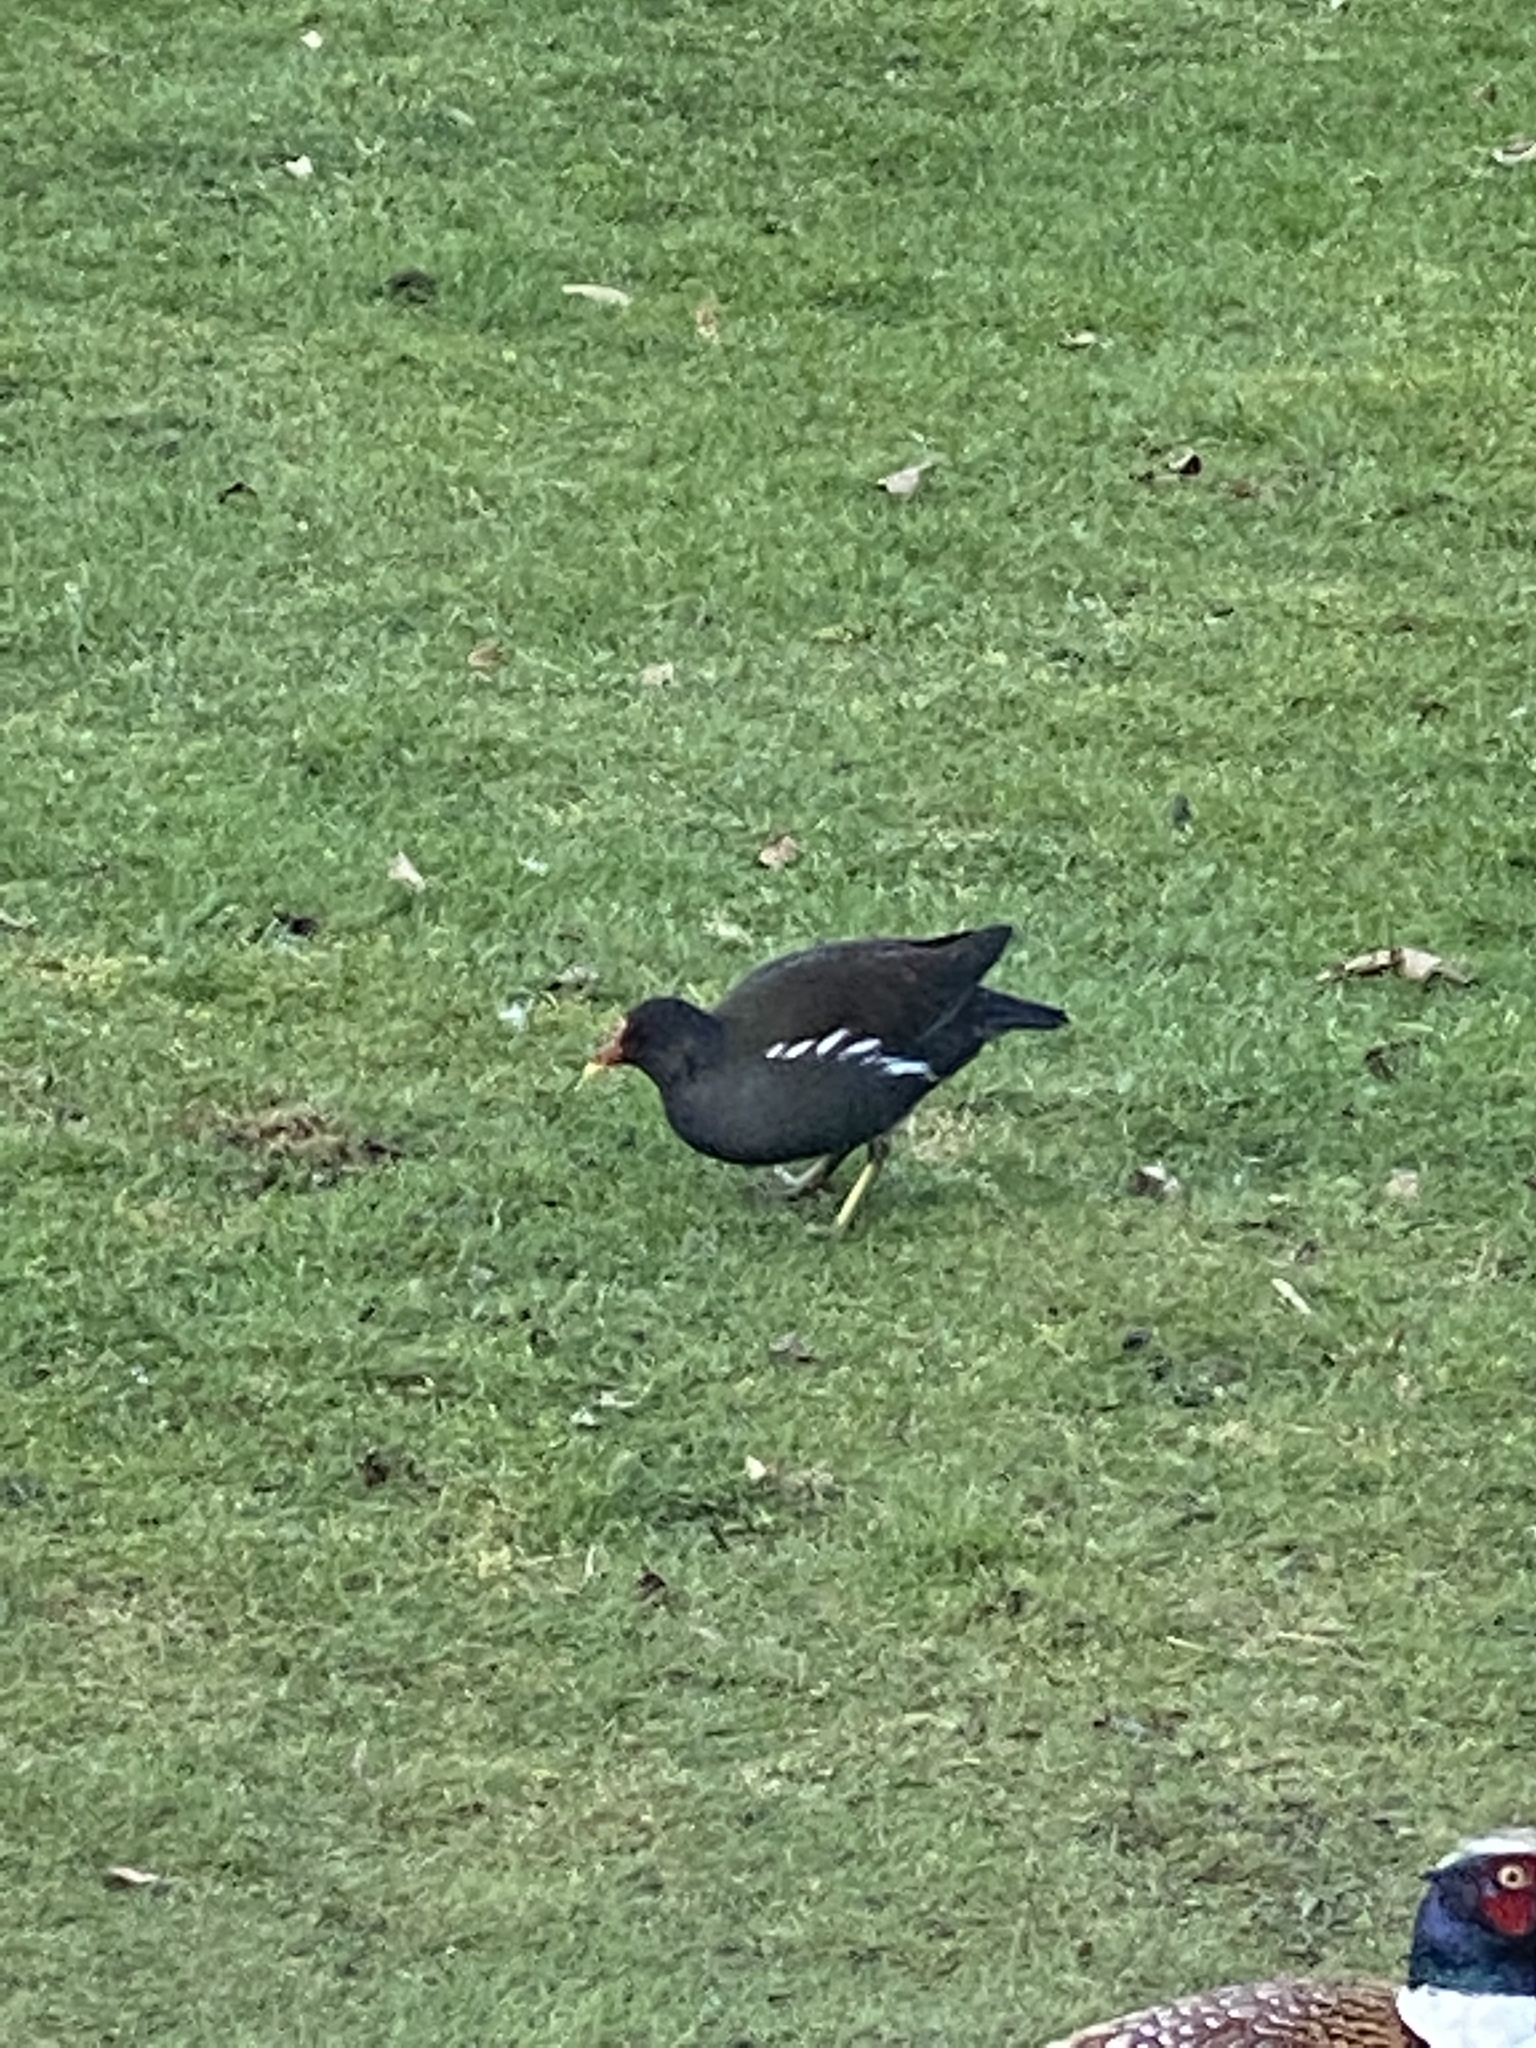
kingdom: Animalia
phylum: Chordata
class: Aves
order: Gruiformes
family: Rallidae
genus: Gallinula
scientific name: Gallinula chloropus
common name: Common moorhen
